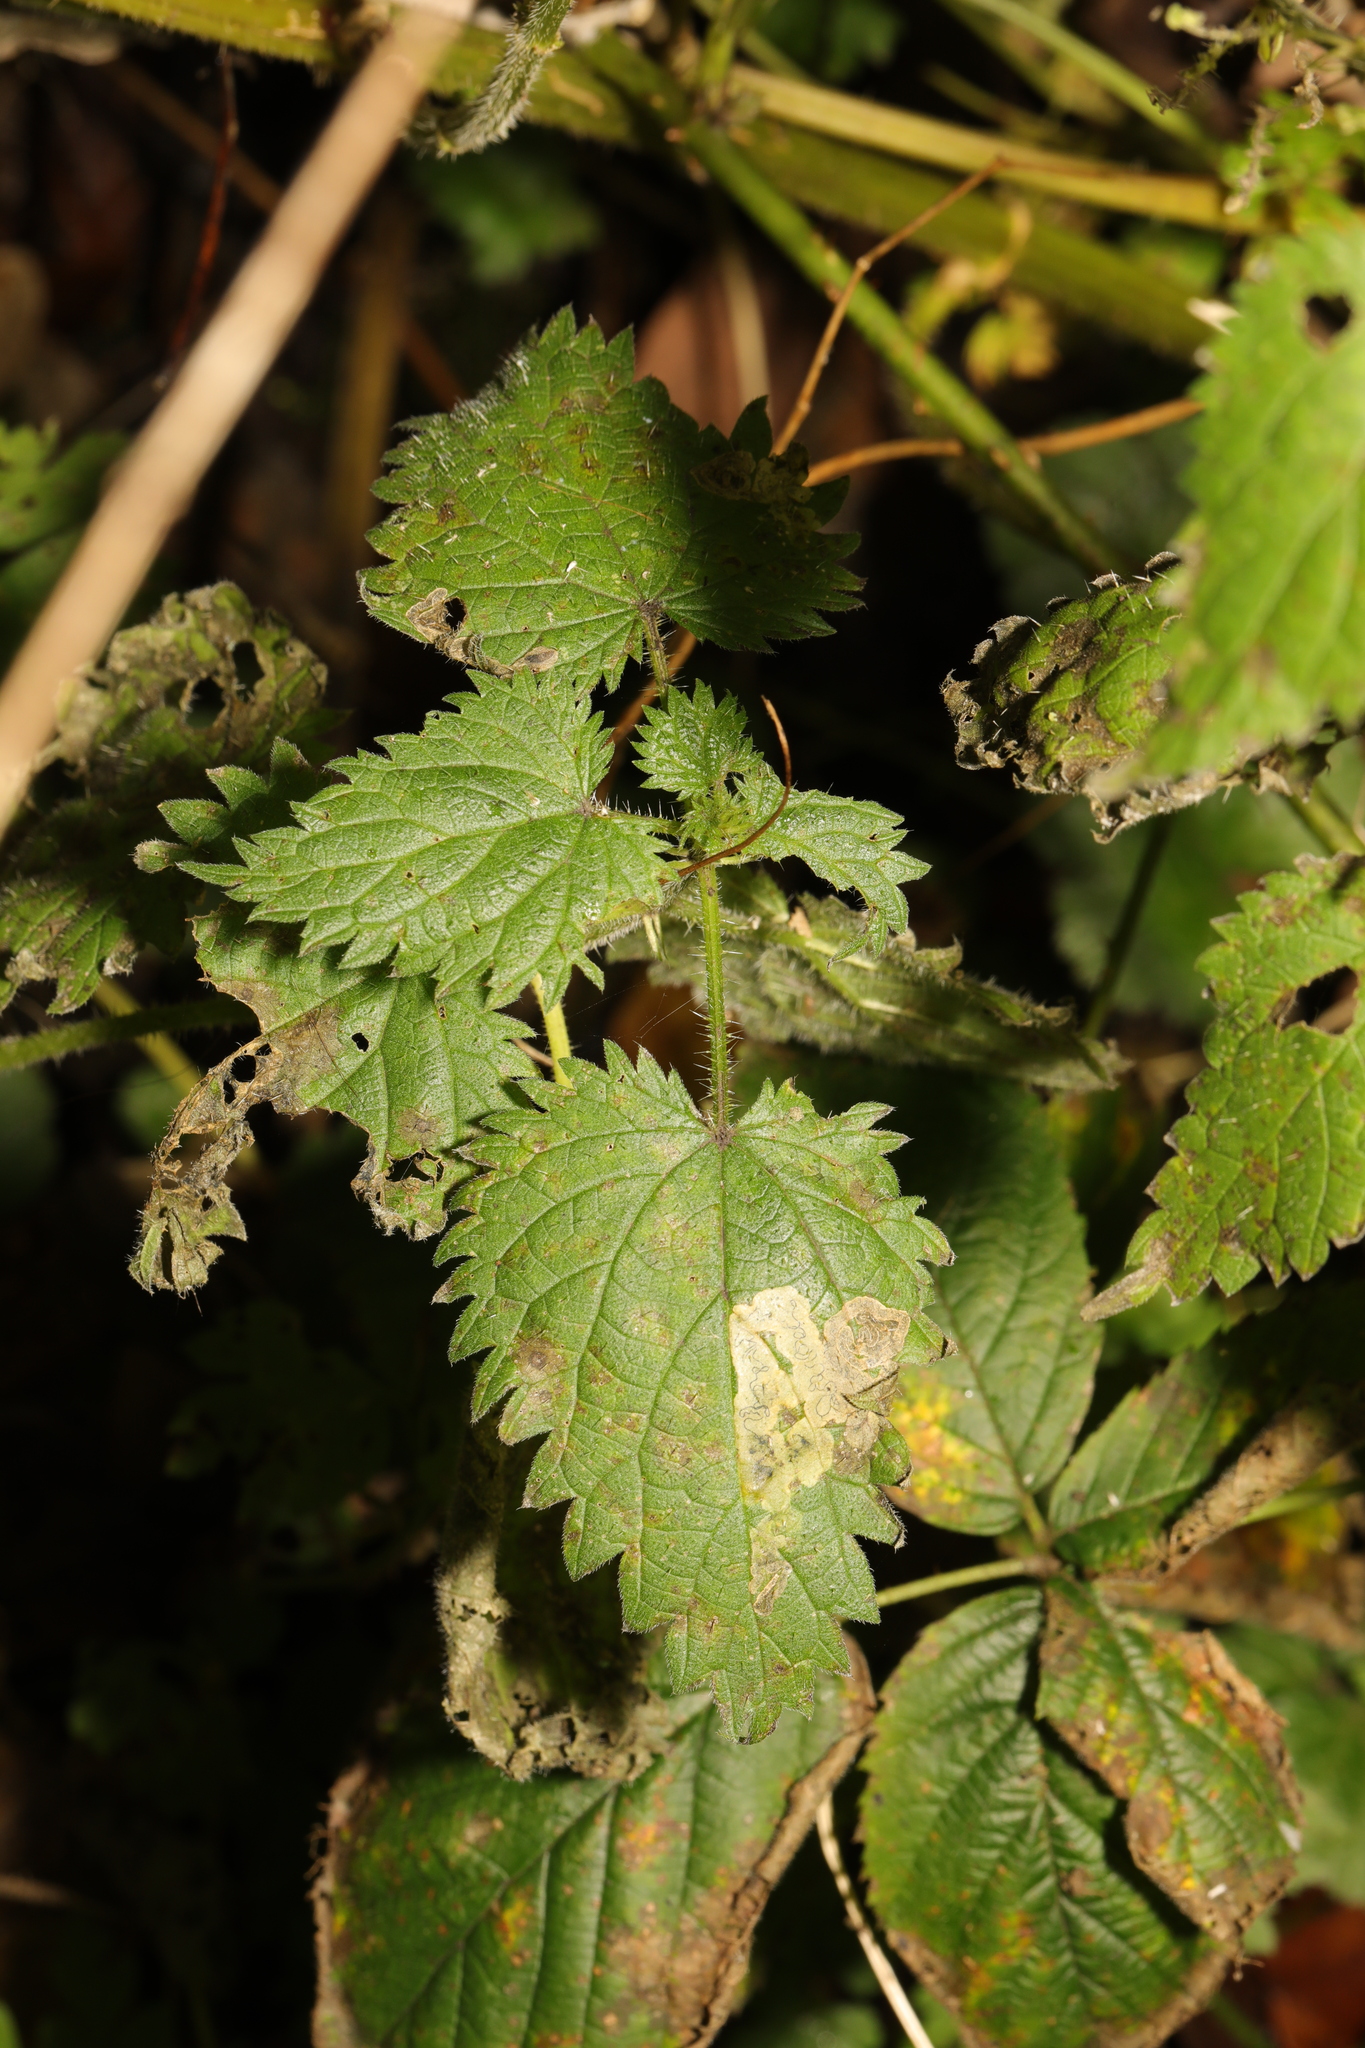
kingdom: Plantae
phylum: Tracheophyta
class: Magnoliopsida
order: Rosales
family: Urticaceae
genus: Urtica
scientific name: Urtica dioica
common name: Common nettle
